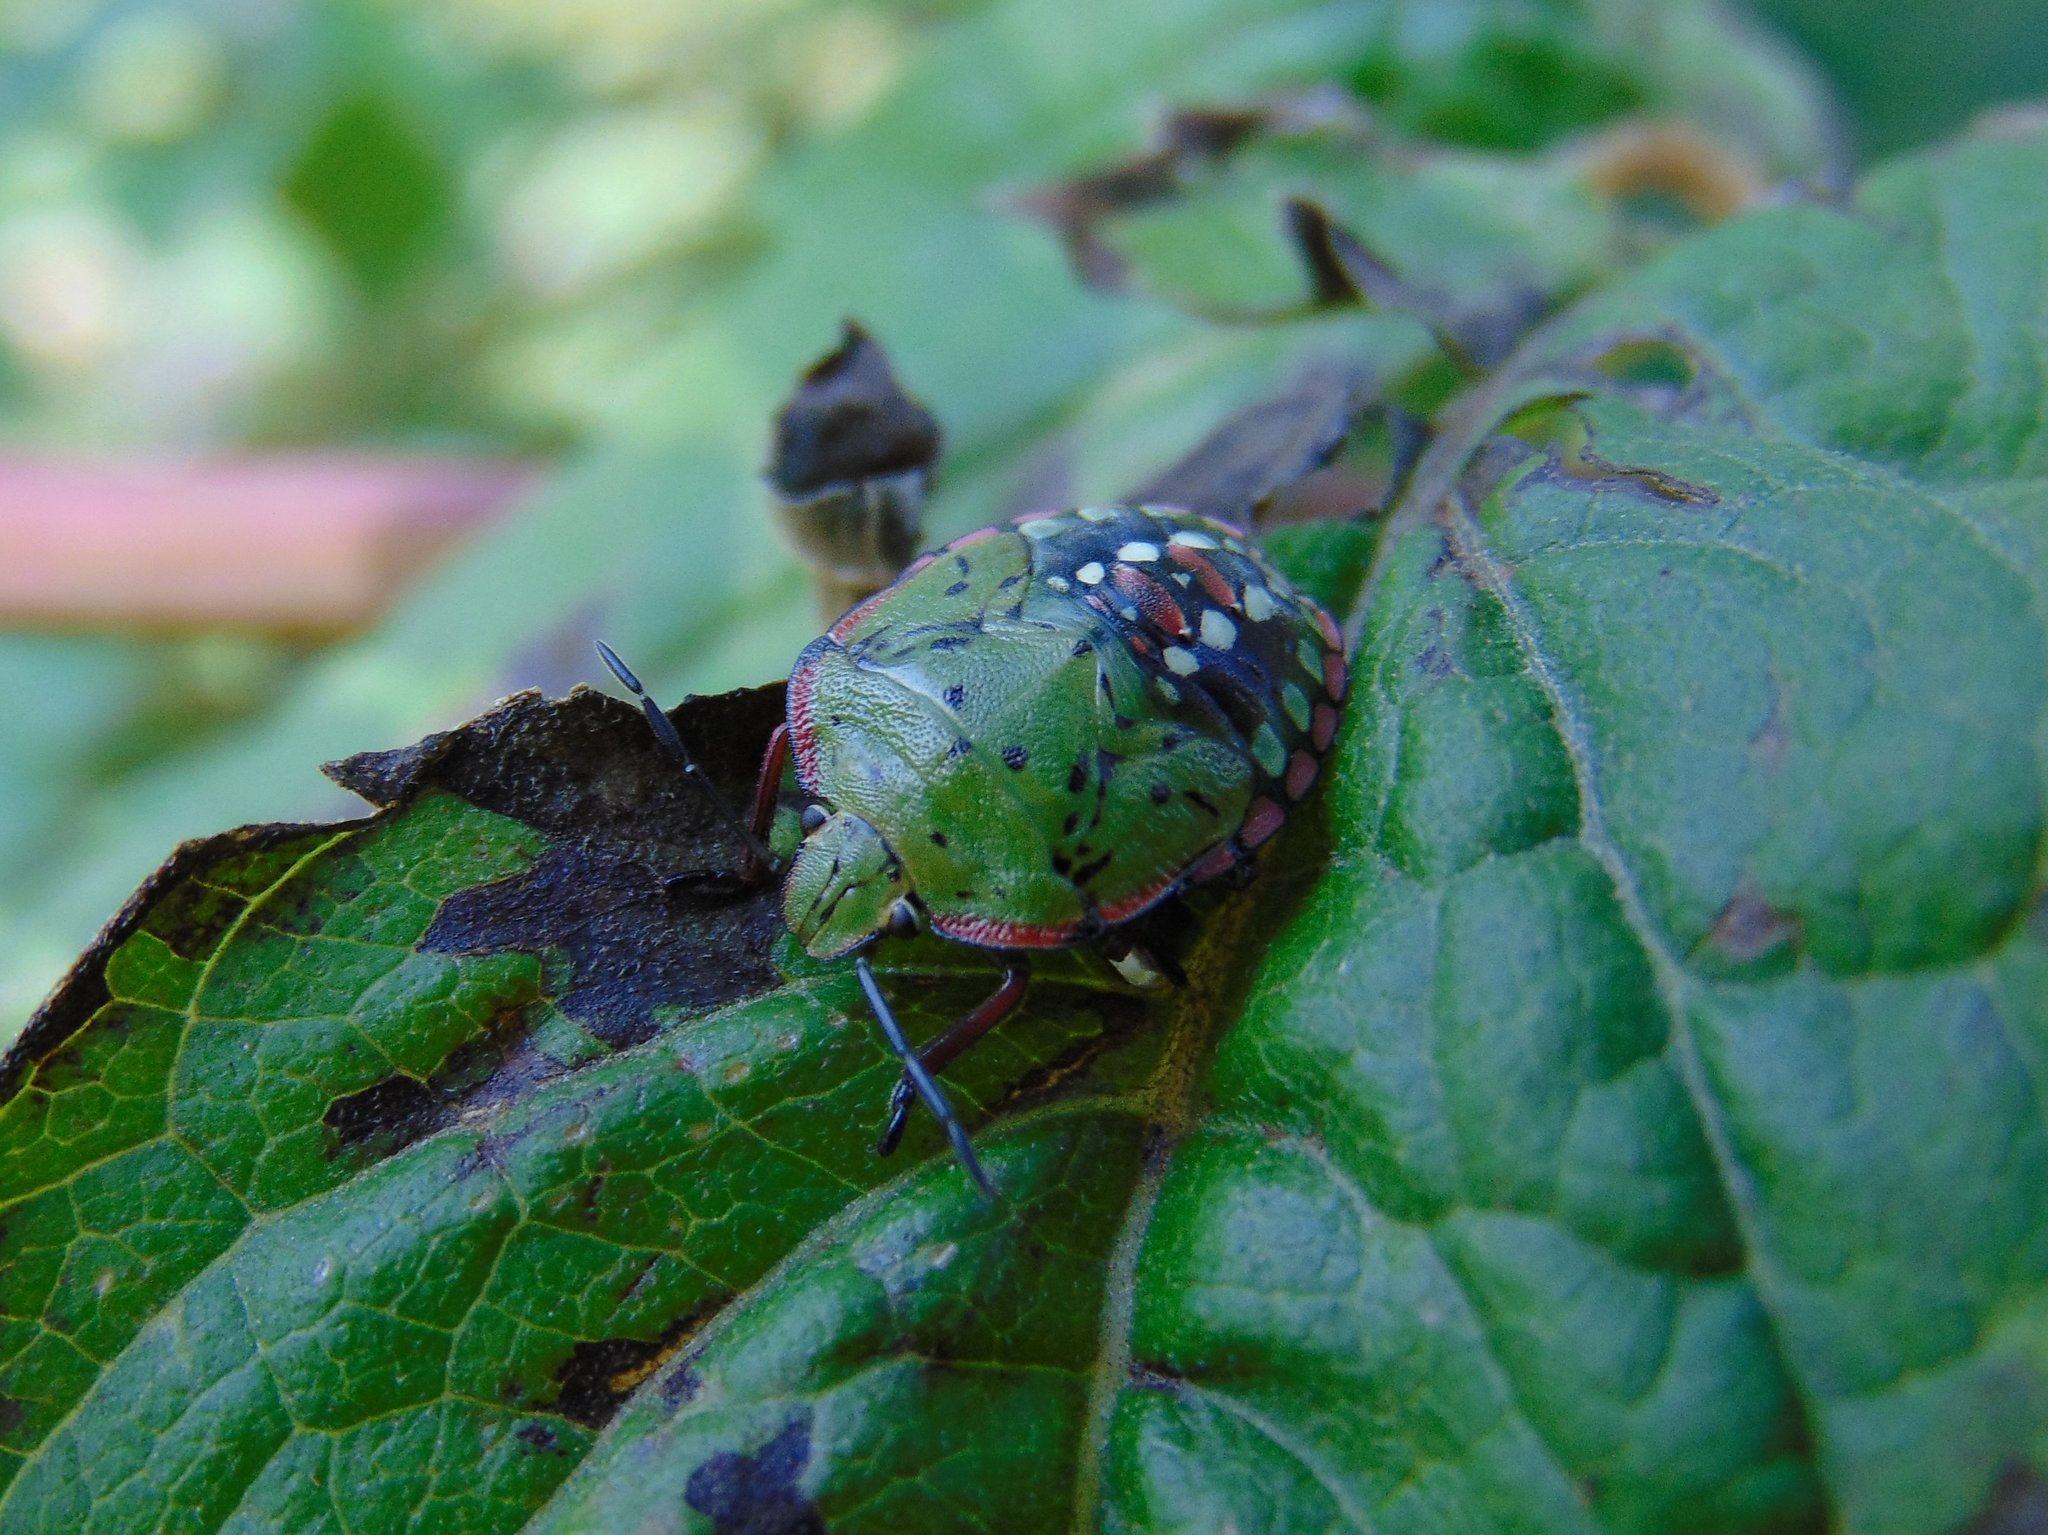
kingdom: Animalia
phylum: Arthropoda
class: Insecta
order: Hemiptera
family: Pentatomidae
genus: Nezara
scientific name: Nezara viridula
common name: Southern green stink bug
